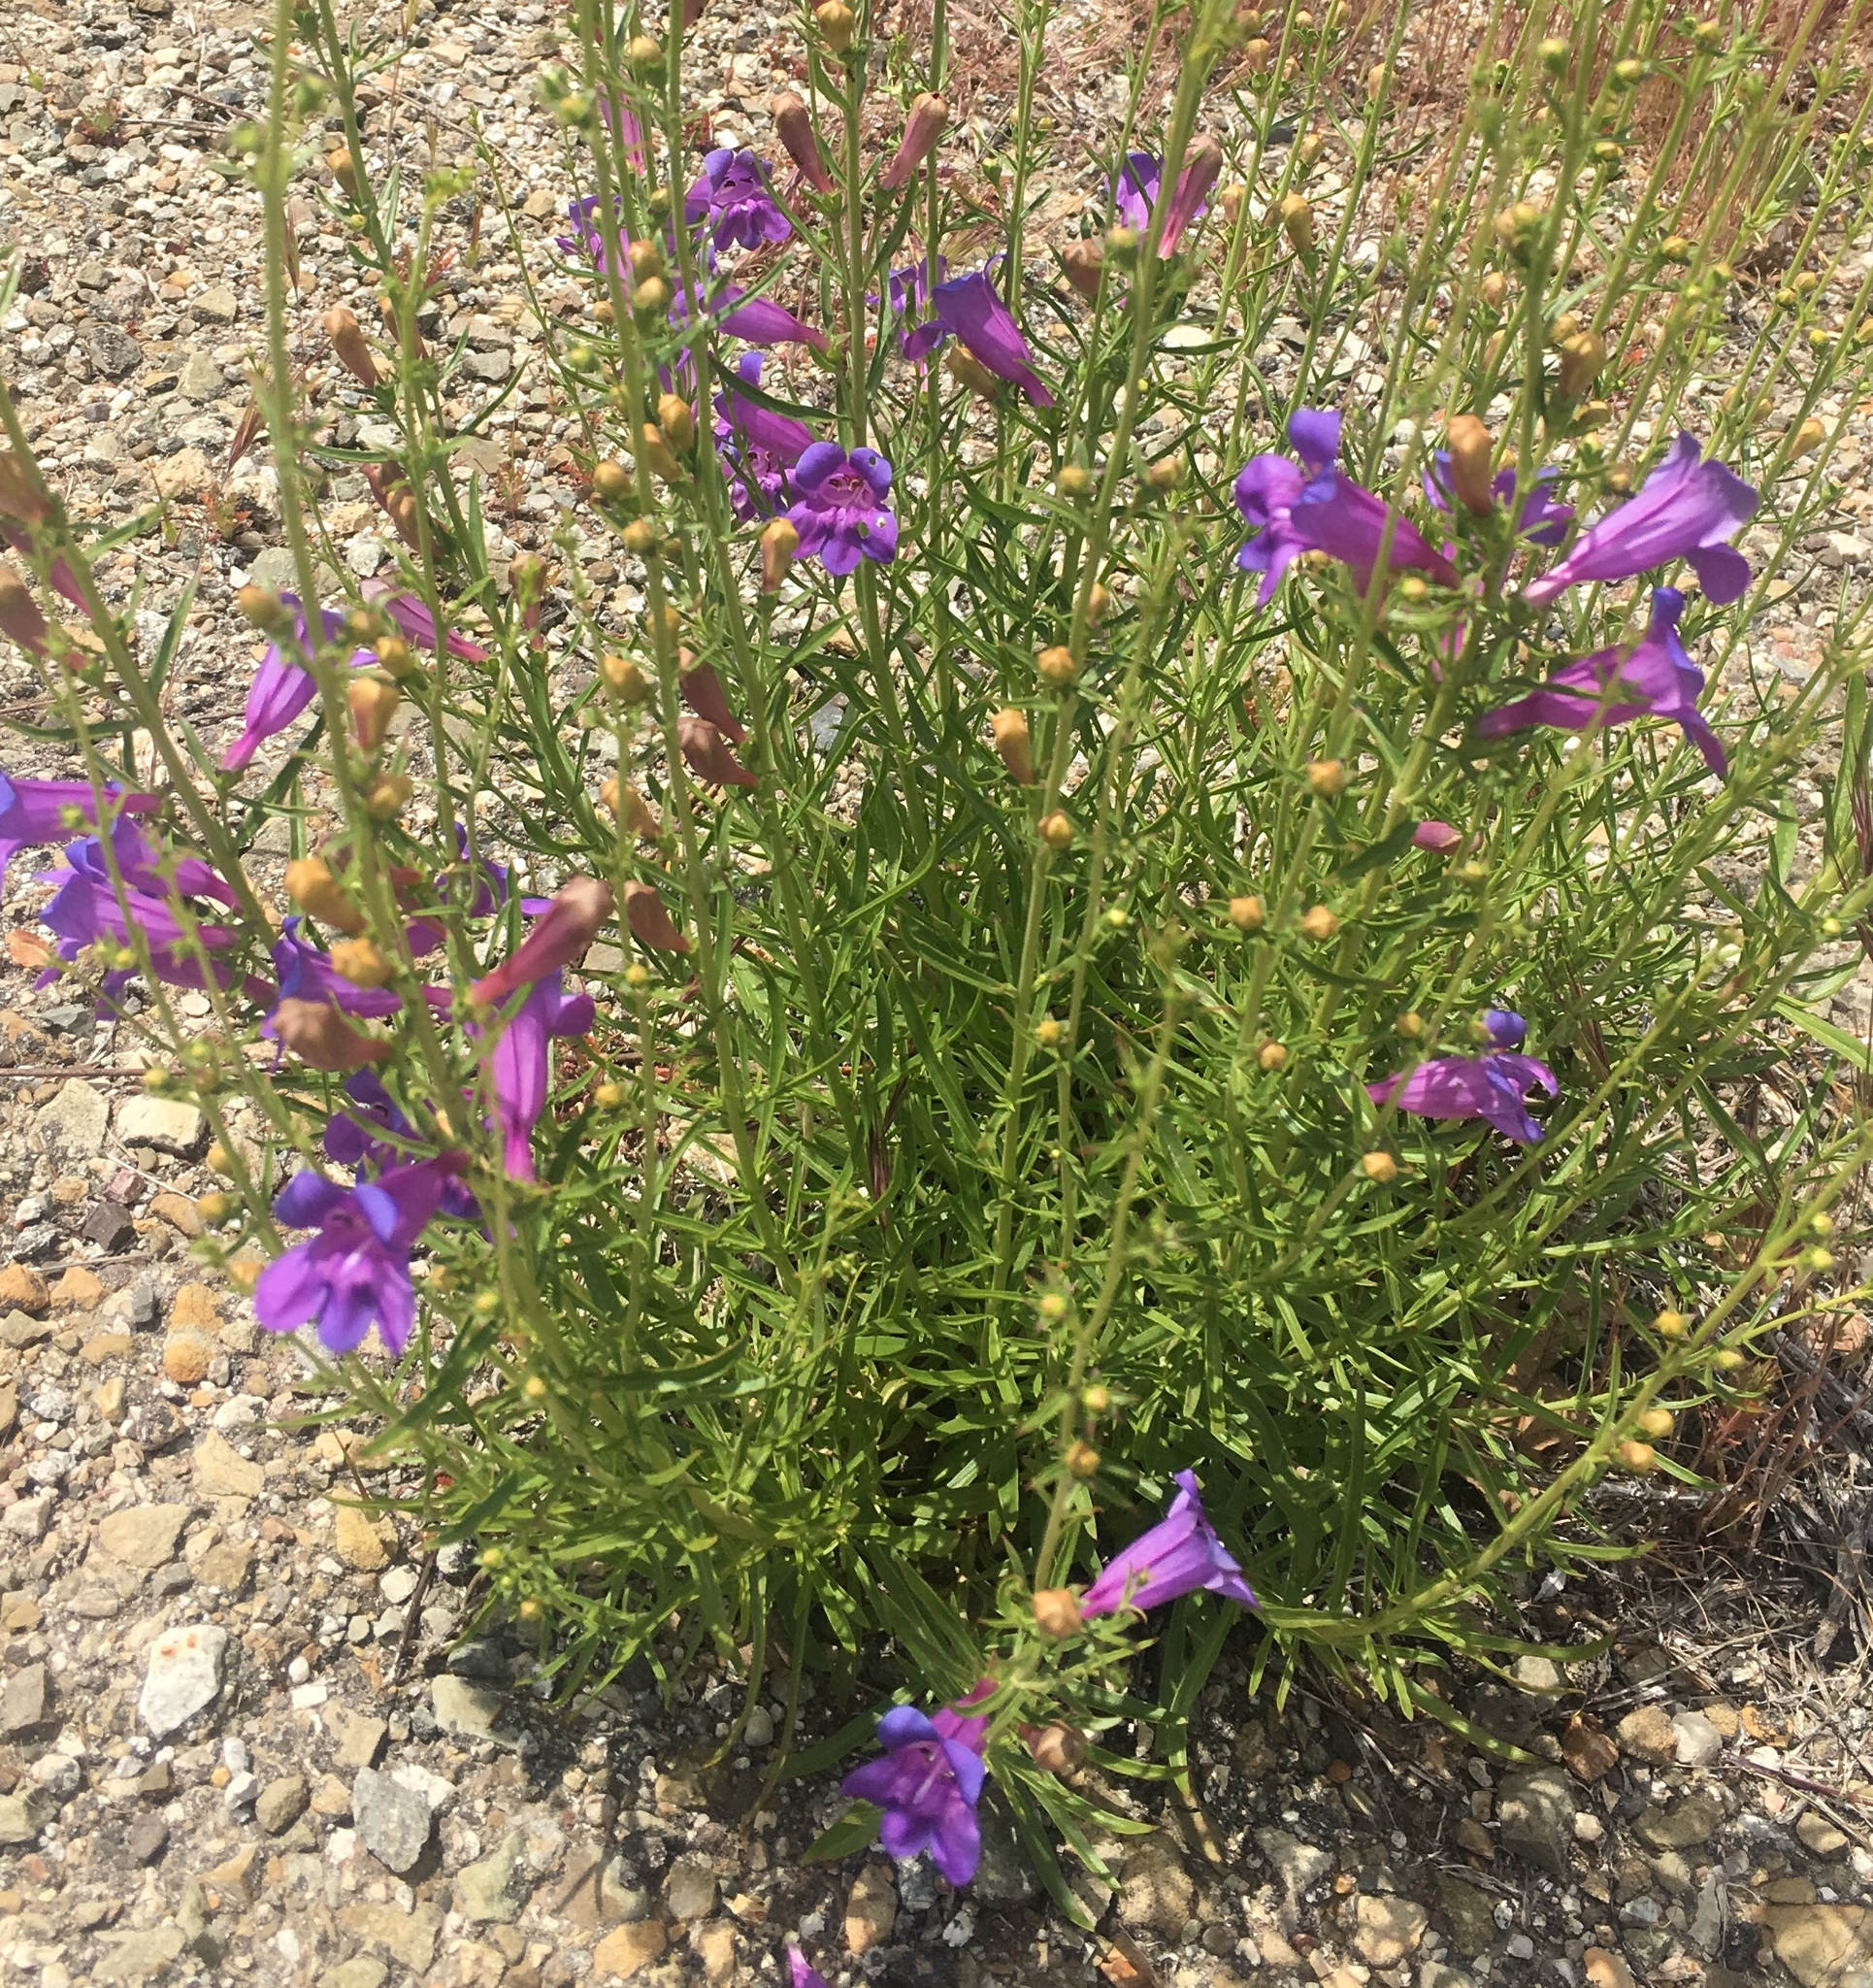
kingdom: Plantae
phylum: Tracheophyta
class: Magnoliopsida
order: Lamiales
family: Plantaginaceae
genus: Penstemon
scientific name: Penstemon heterophyllus
